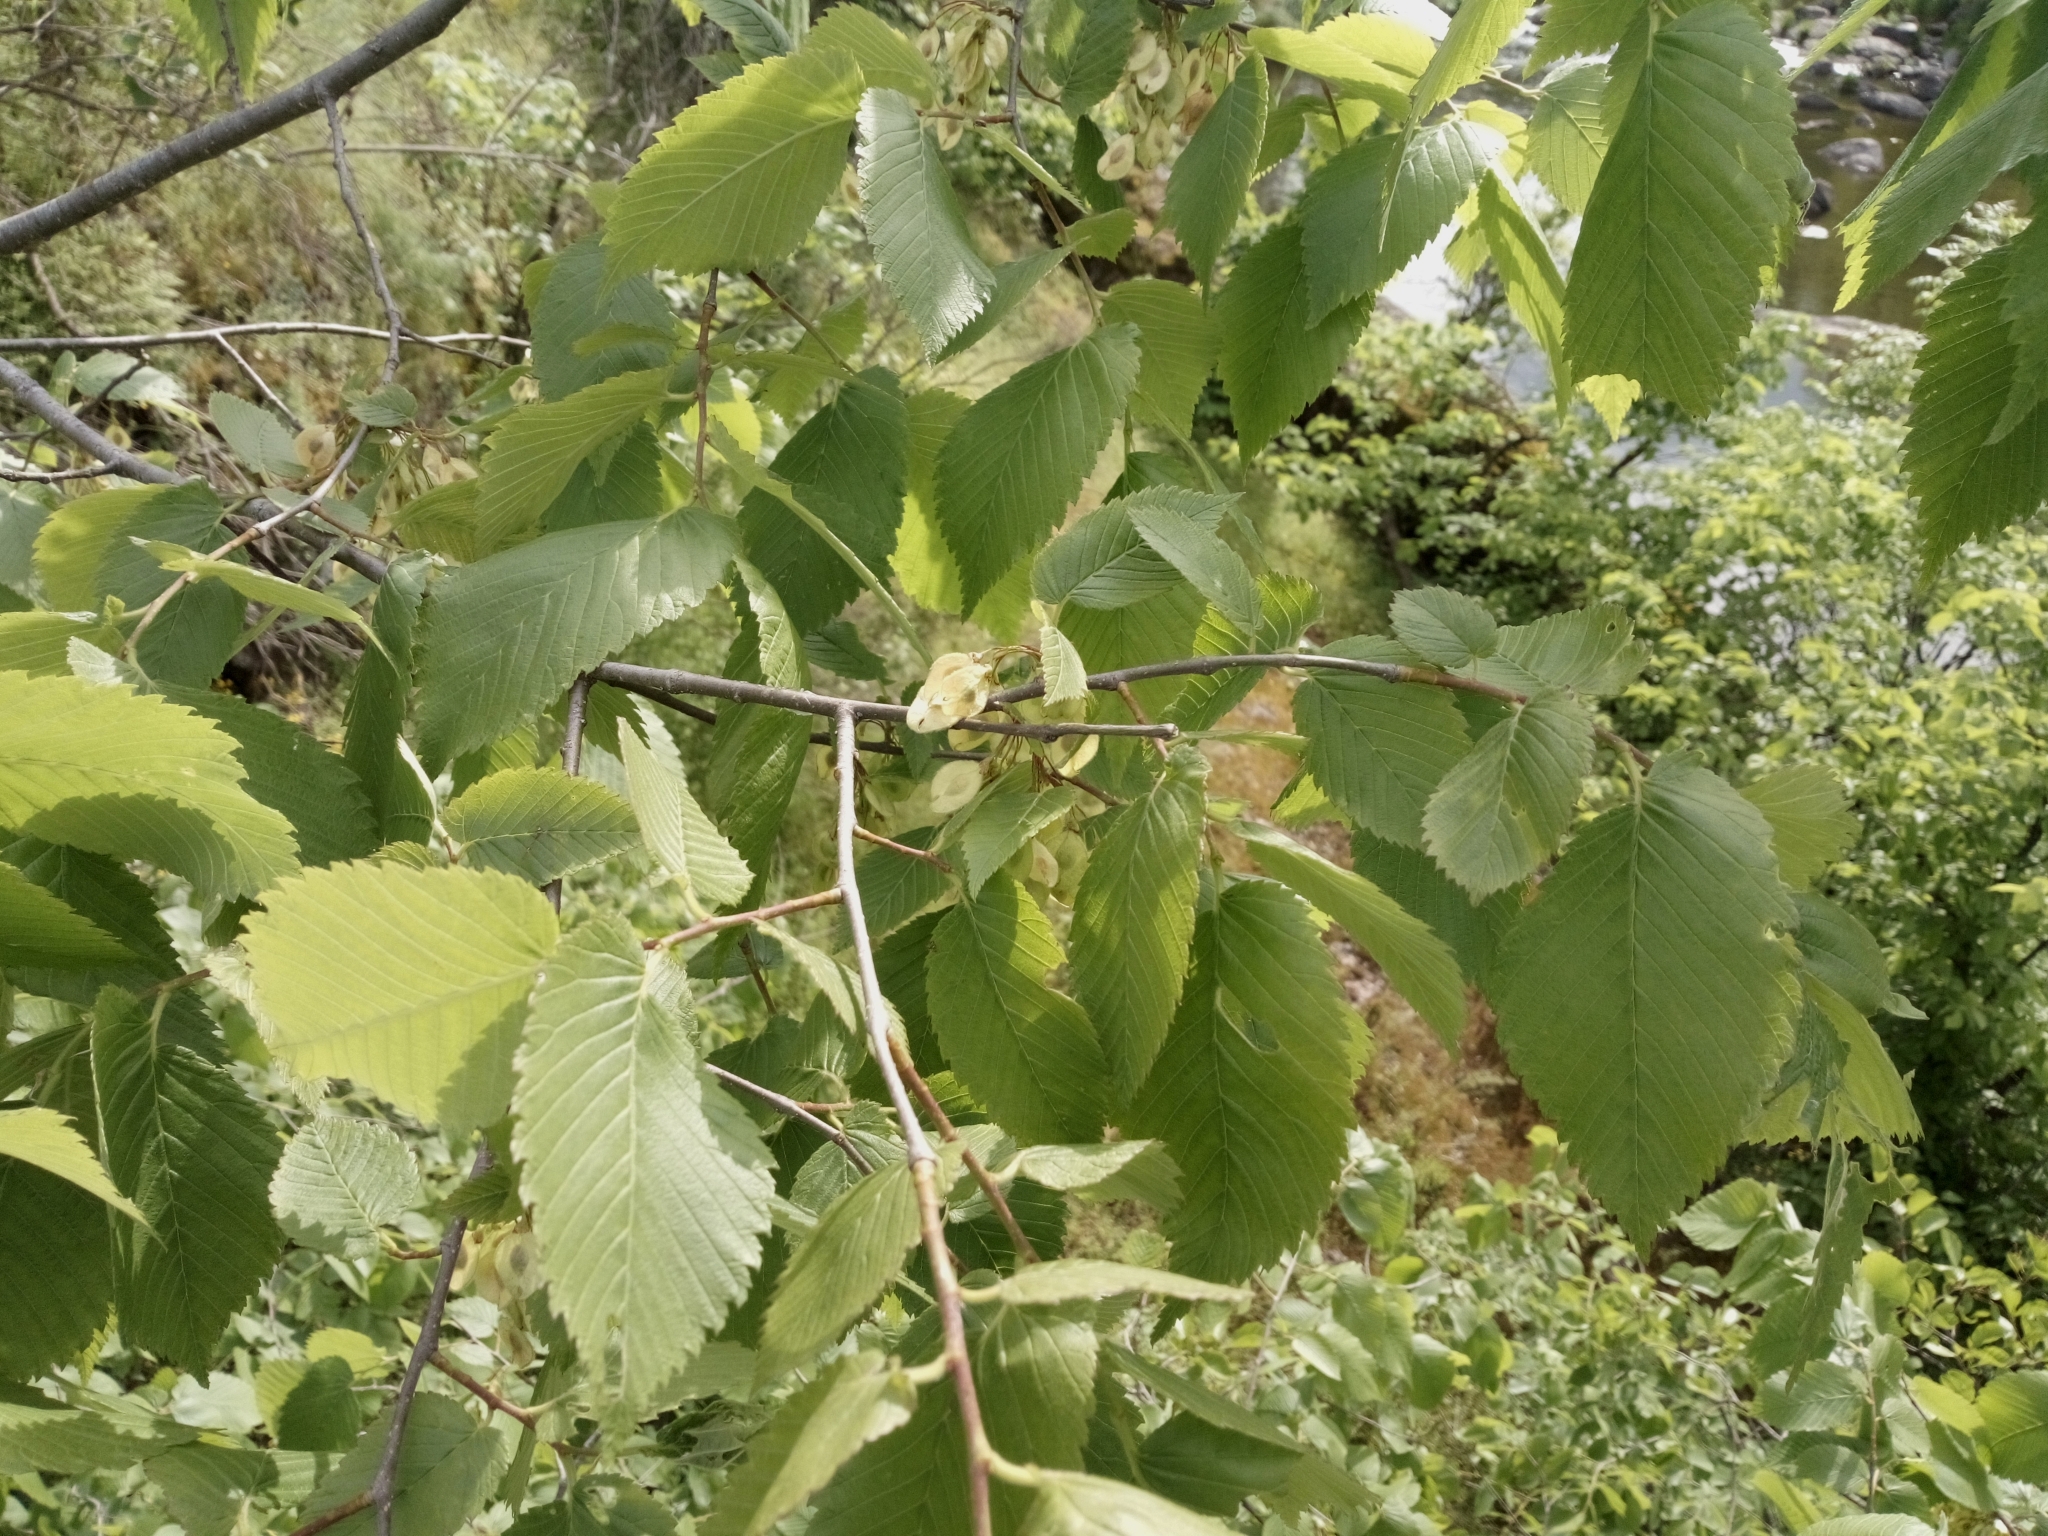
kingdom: Plantae
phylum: Tracheophyta
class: Magnoliopsida
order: Rosales
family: Ulmaceae
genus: Ulmus
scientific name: Ulmus laevis
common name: European white-elm
